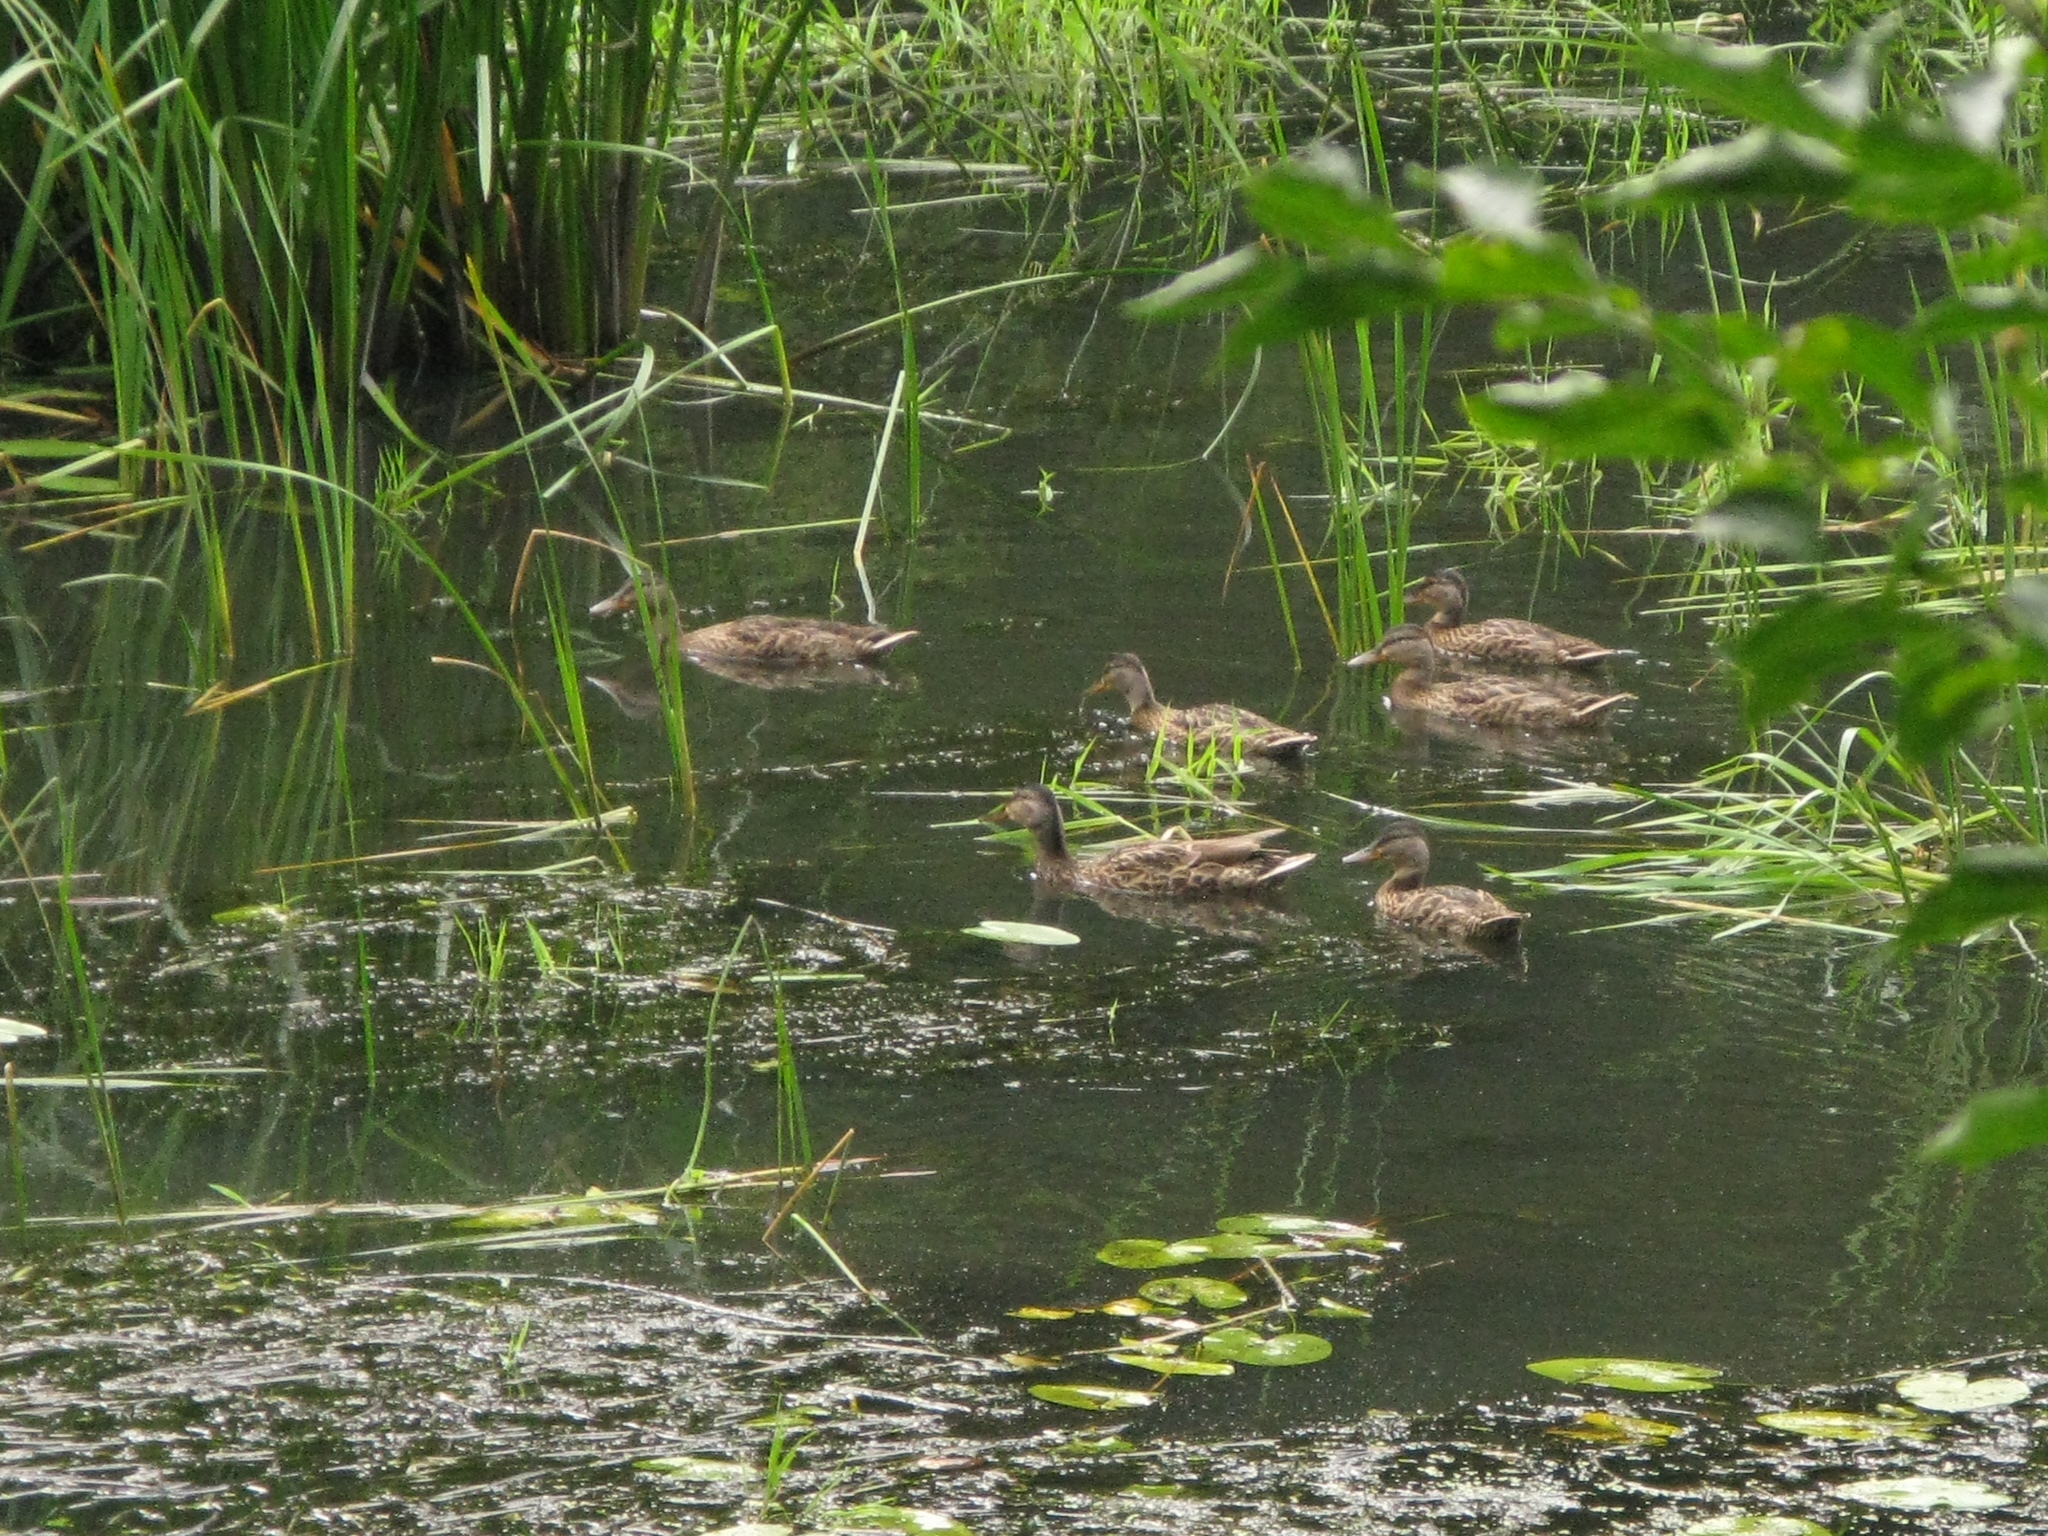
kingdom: Animalia
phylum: Chordata
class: Aves
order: Anseriformes
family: Anatidae
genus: Anas
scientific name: Anas platyrhynchos
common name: Mallard
